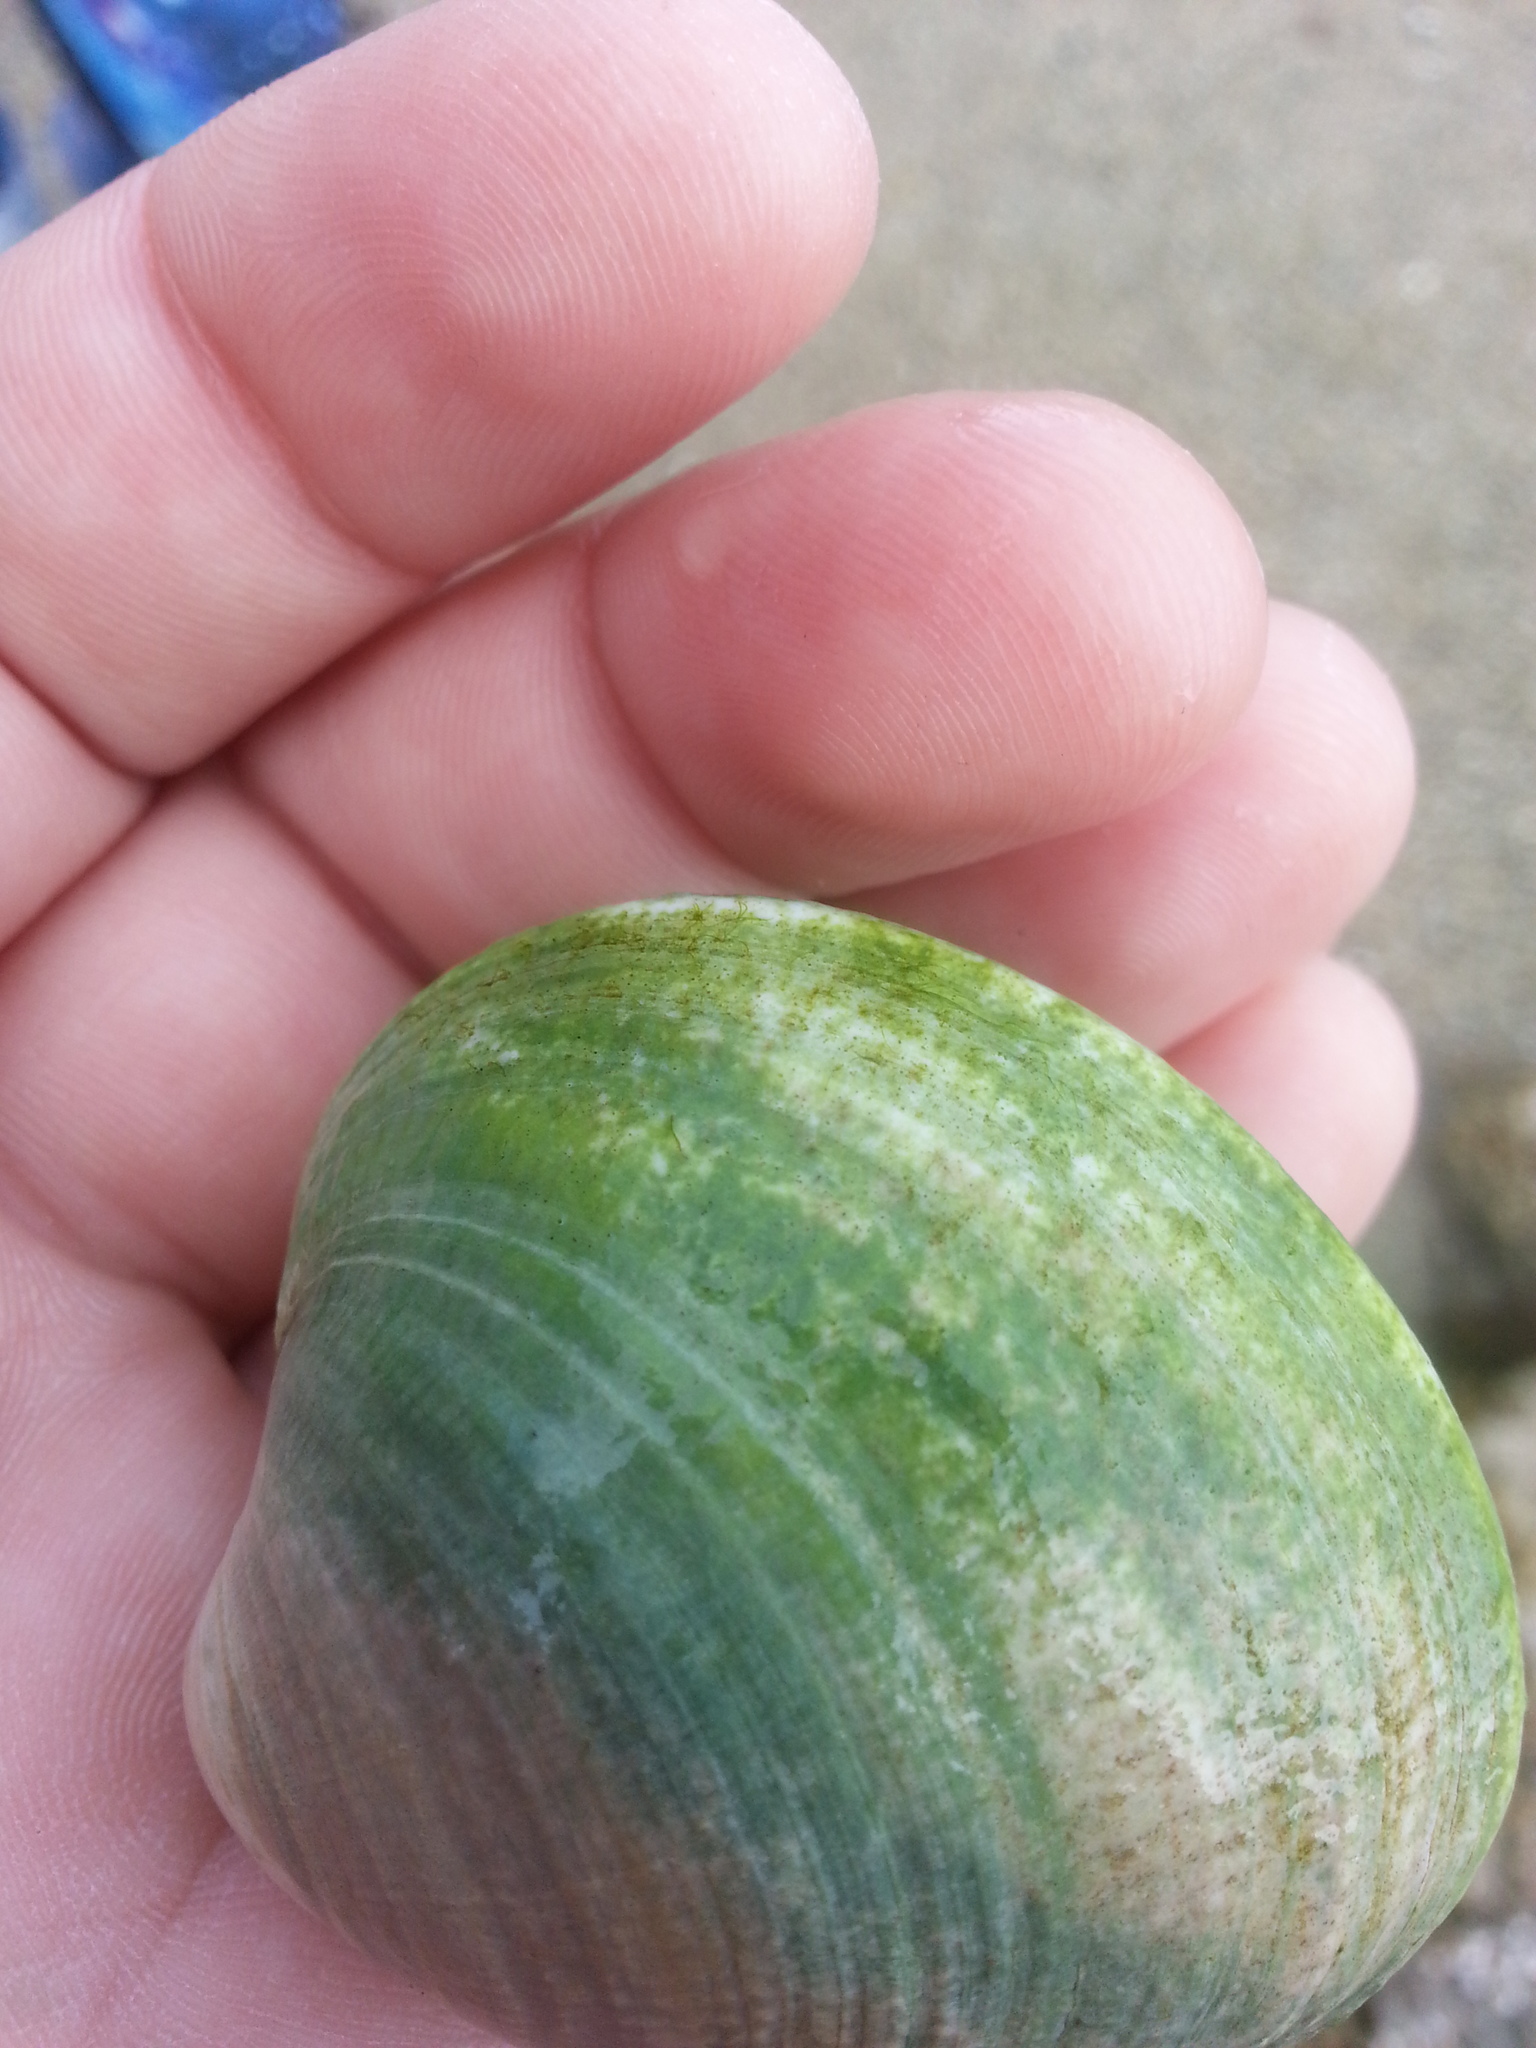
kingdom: Animalia
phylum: Mollusca
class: Bivalvia
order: Venerida
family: Veneridae
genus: Leukoma
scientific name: Leukoma staminea
